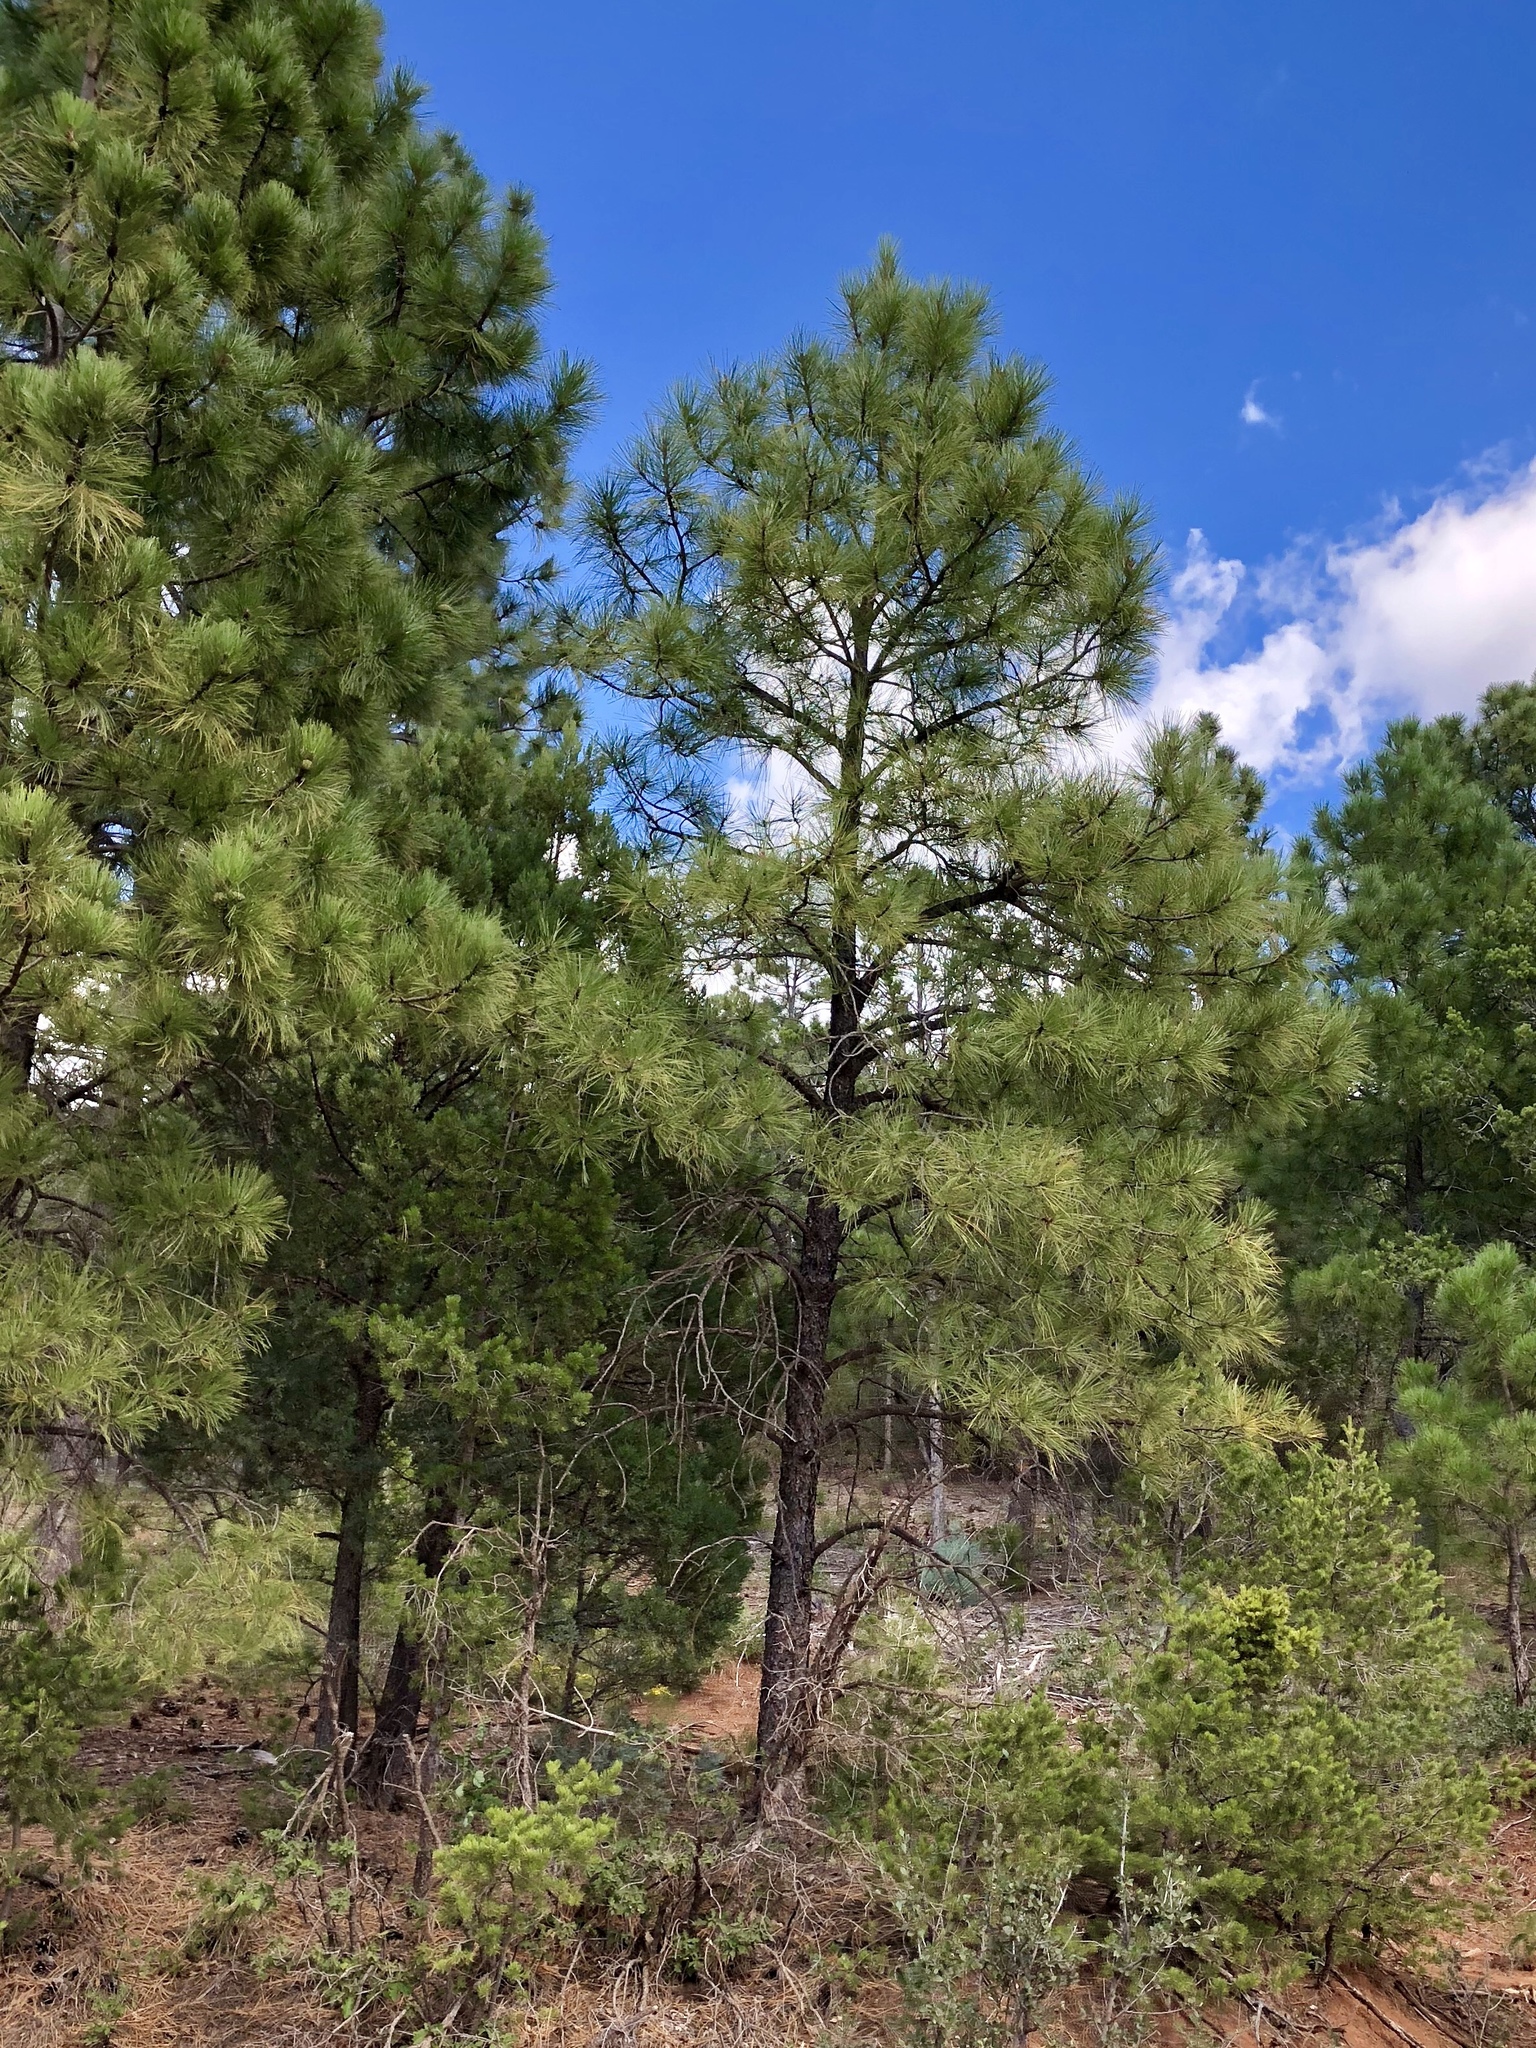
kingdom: Plantae
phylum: Tracheophyta
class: Pinopsida
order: Pinales
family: Pinaceae
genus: Pinus
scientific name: Pinus ponderosa
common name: Western yellow-pine
